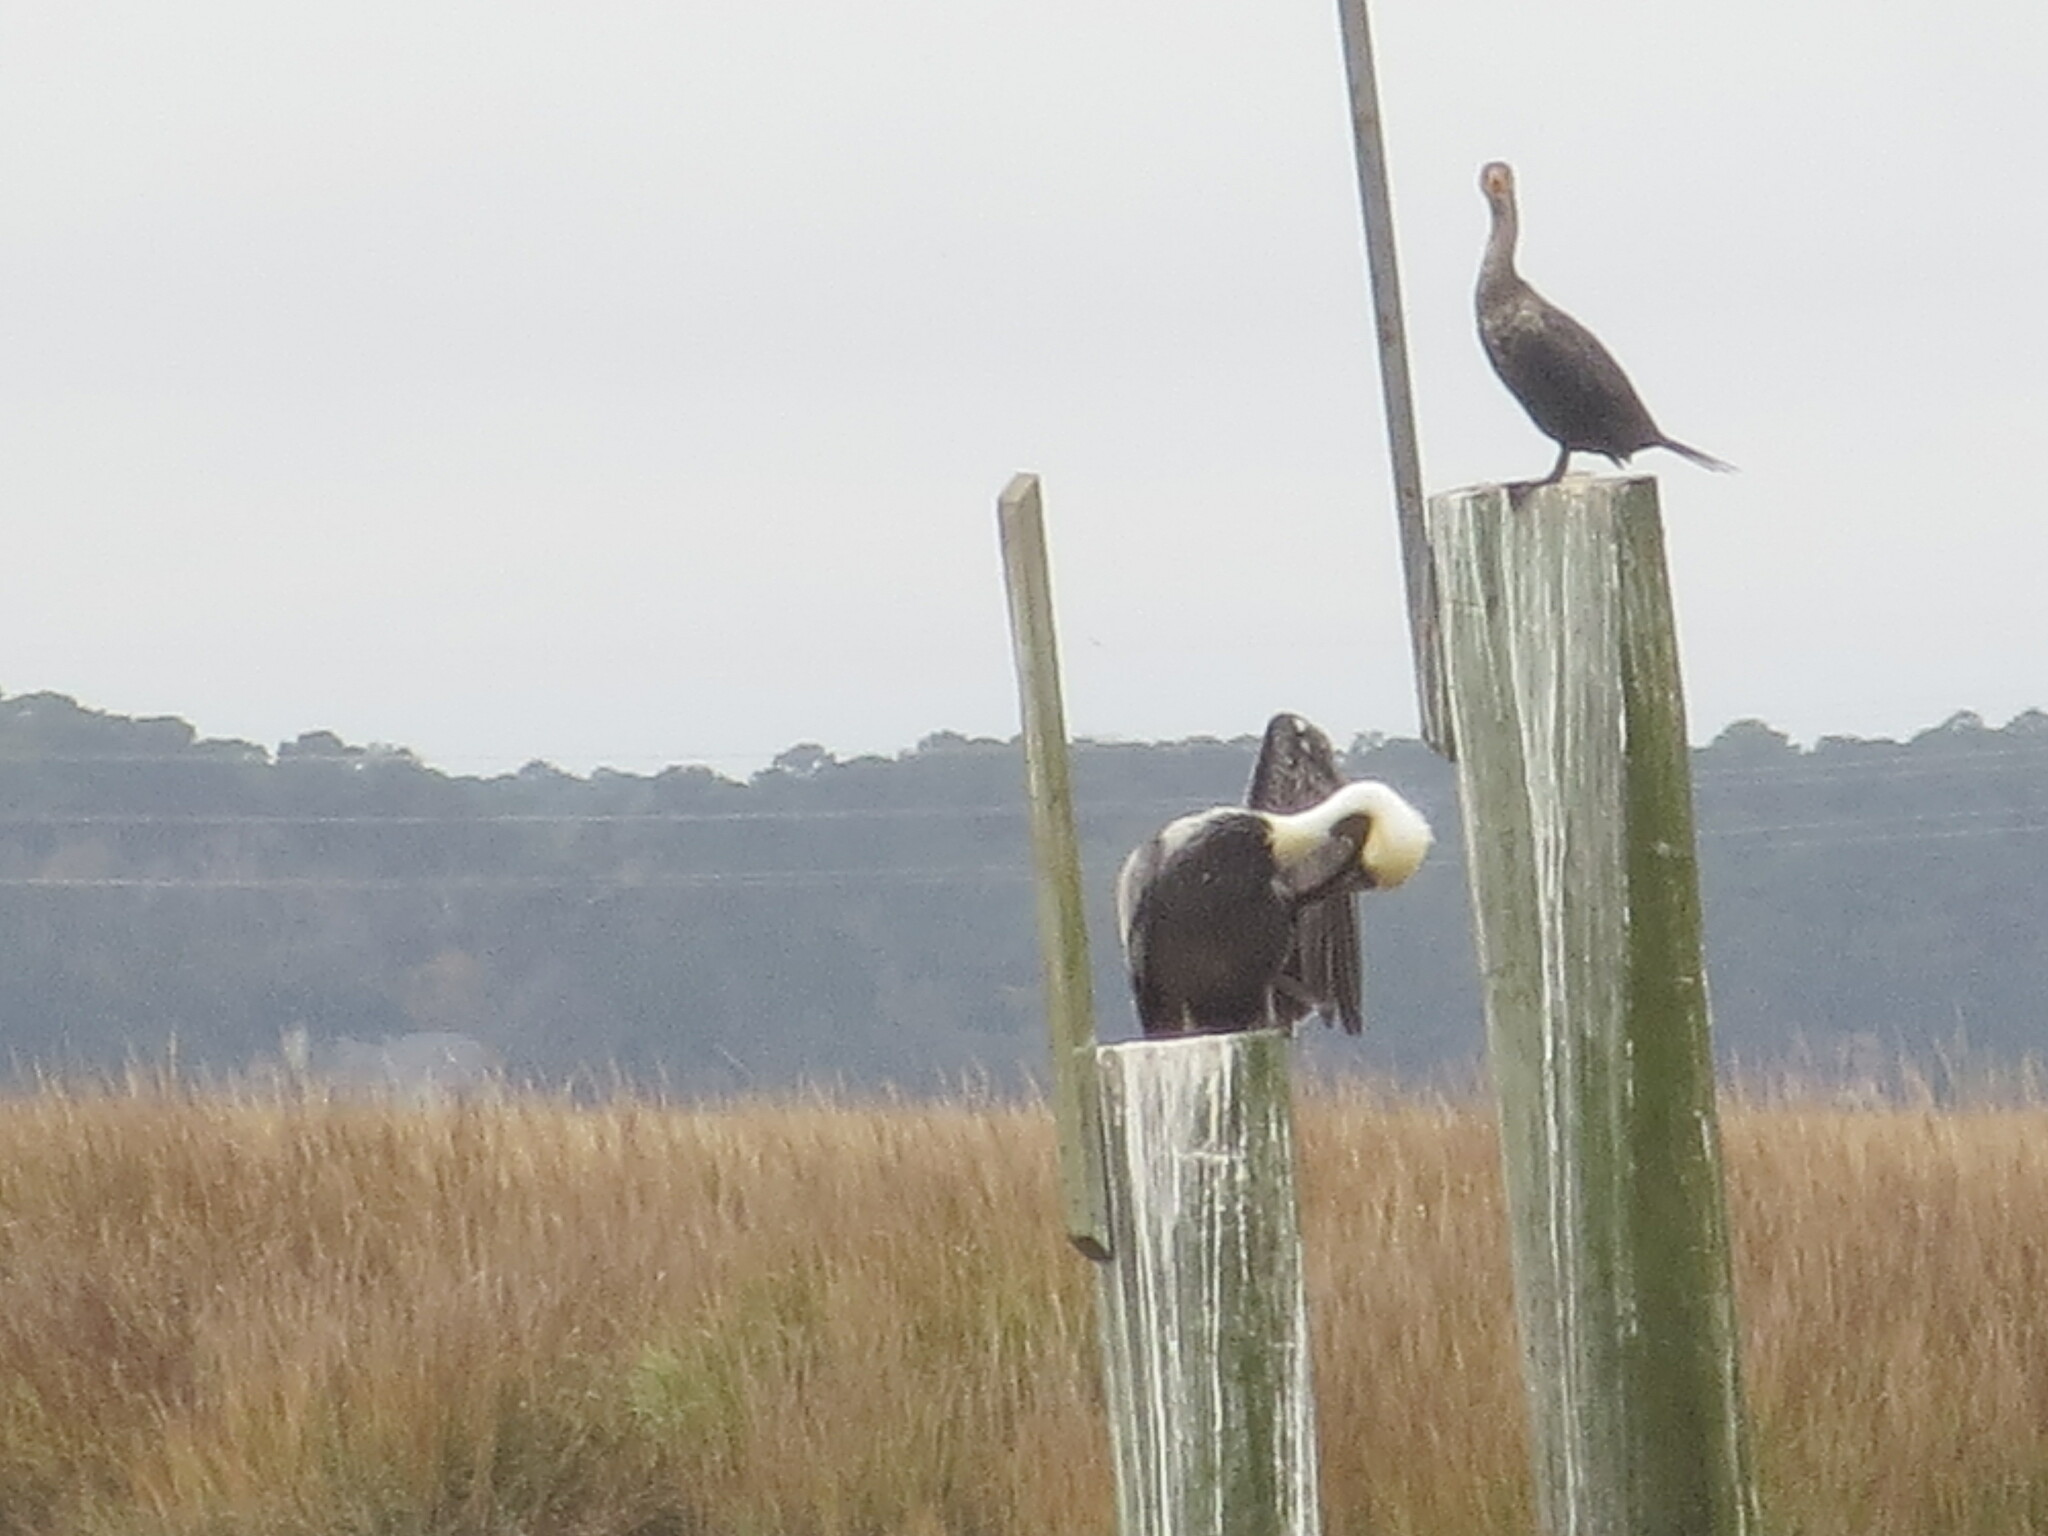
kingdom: Animalia
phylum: Chordata
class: Aves
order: Pelecaniformes
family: Pelecanidae
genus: Pelecanus
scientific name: Pelecanus occidentalis
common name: Brown pelican
